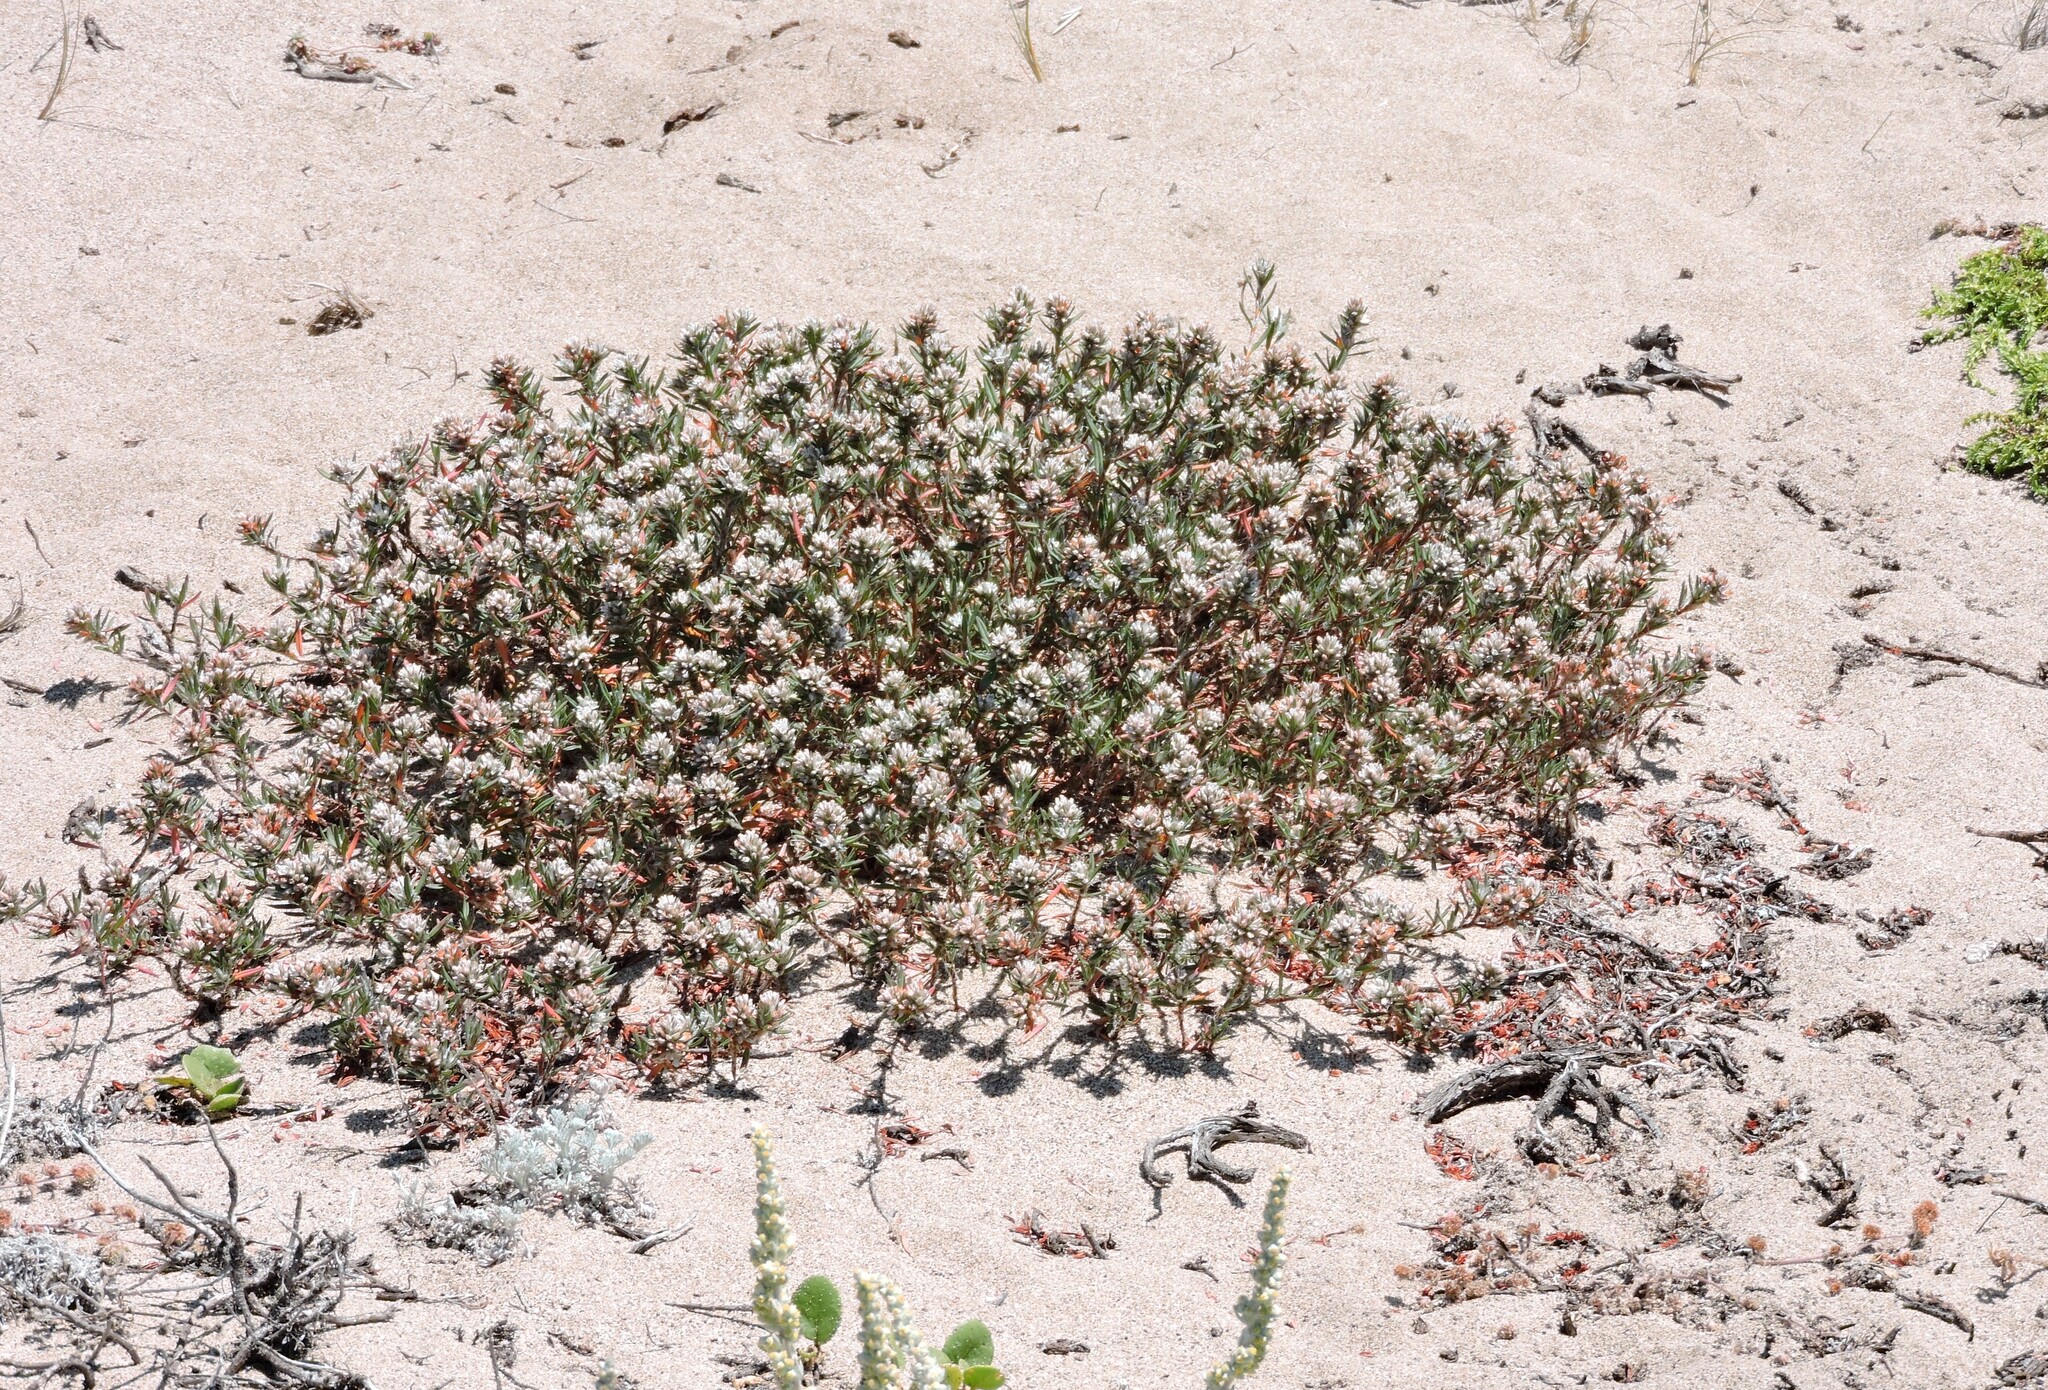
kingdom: Plantae
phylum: Tracheophyta
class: Magnoliopsida
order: Caryophyllales
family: Polygonaceae
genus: Polygonum
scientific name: Polygonum paronychia
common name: Dune knotweed
